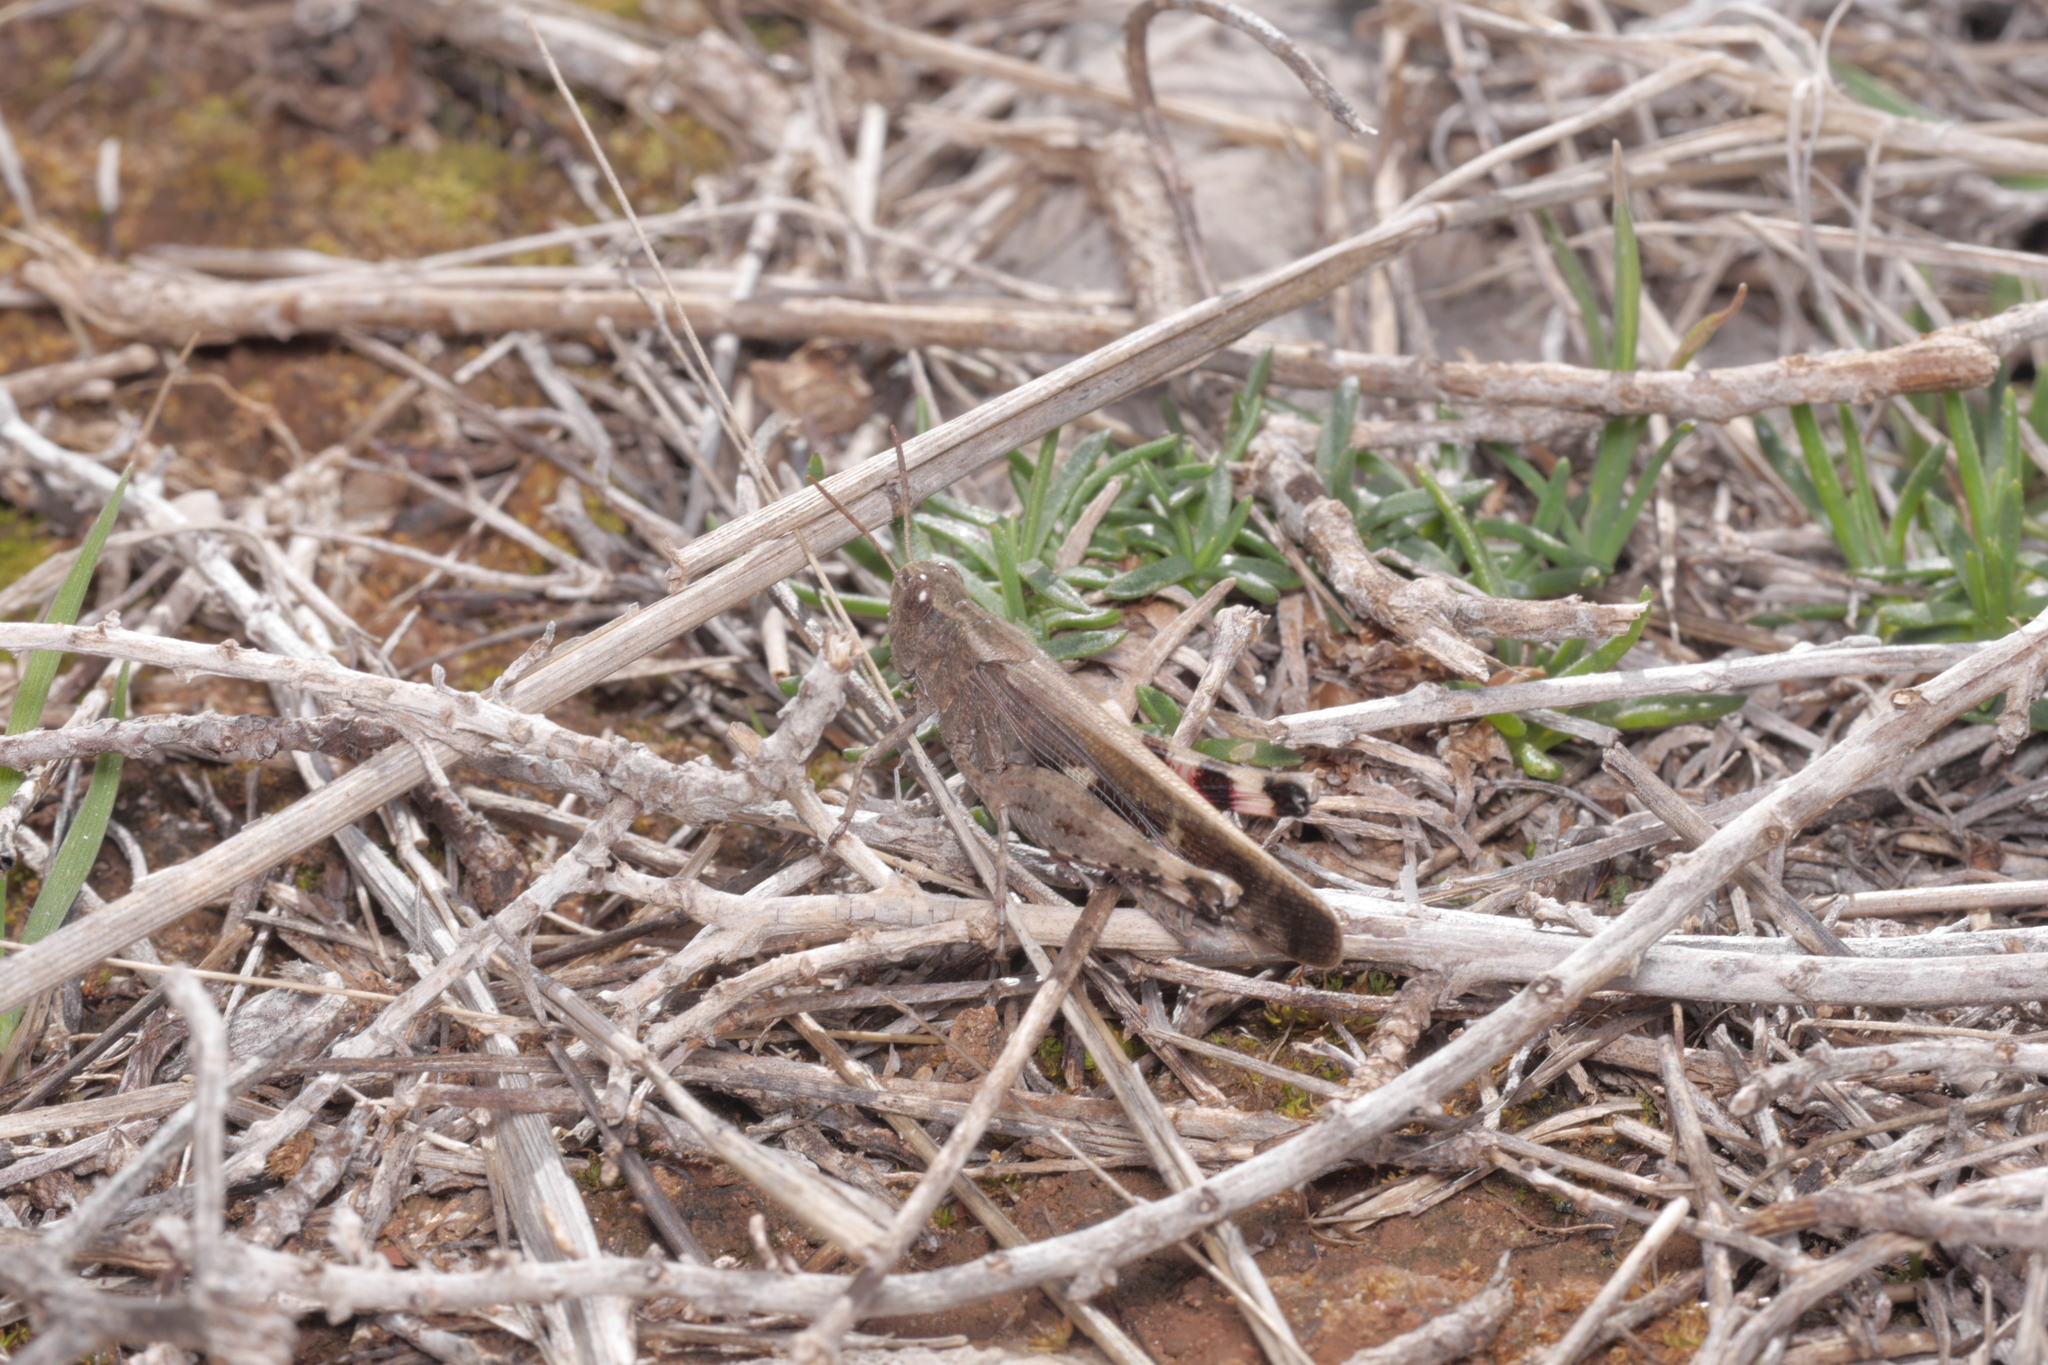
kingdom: Animalia
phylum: Arthropoda
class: Insecta
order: Orthoptera
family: Acrididae
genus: Aiolopus
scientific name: Aiolopus strepens
